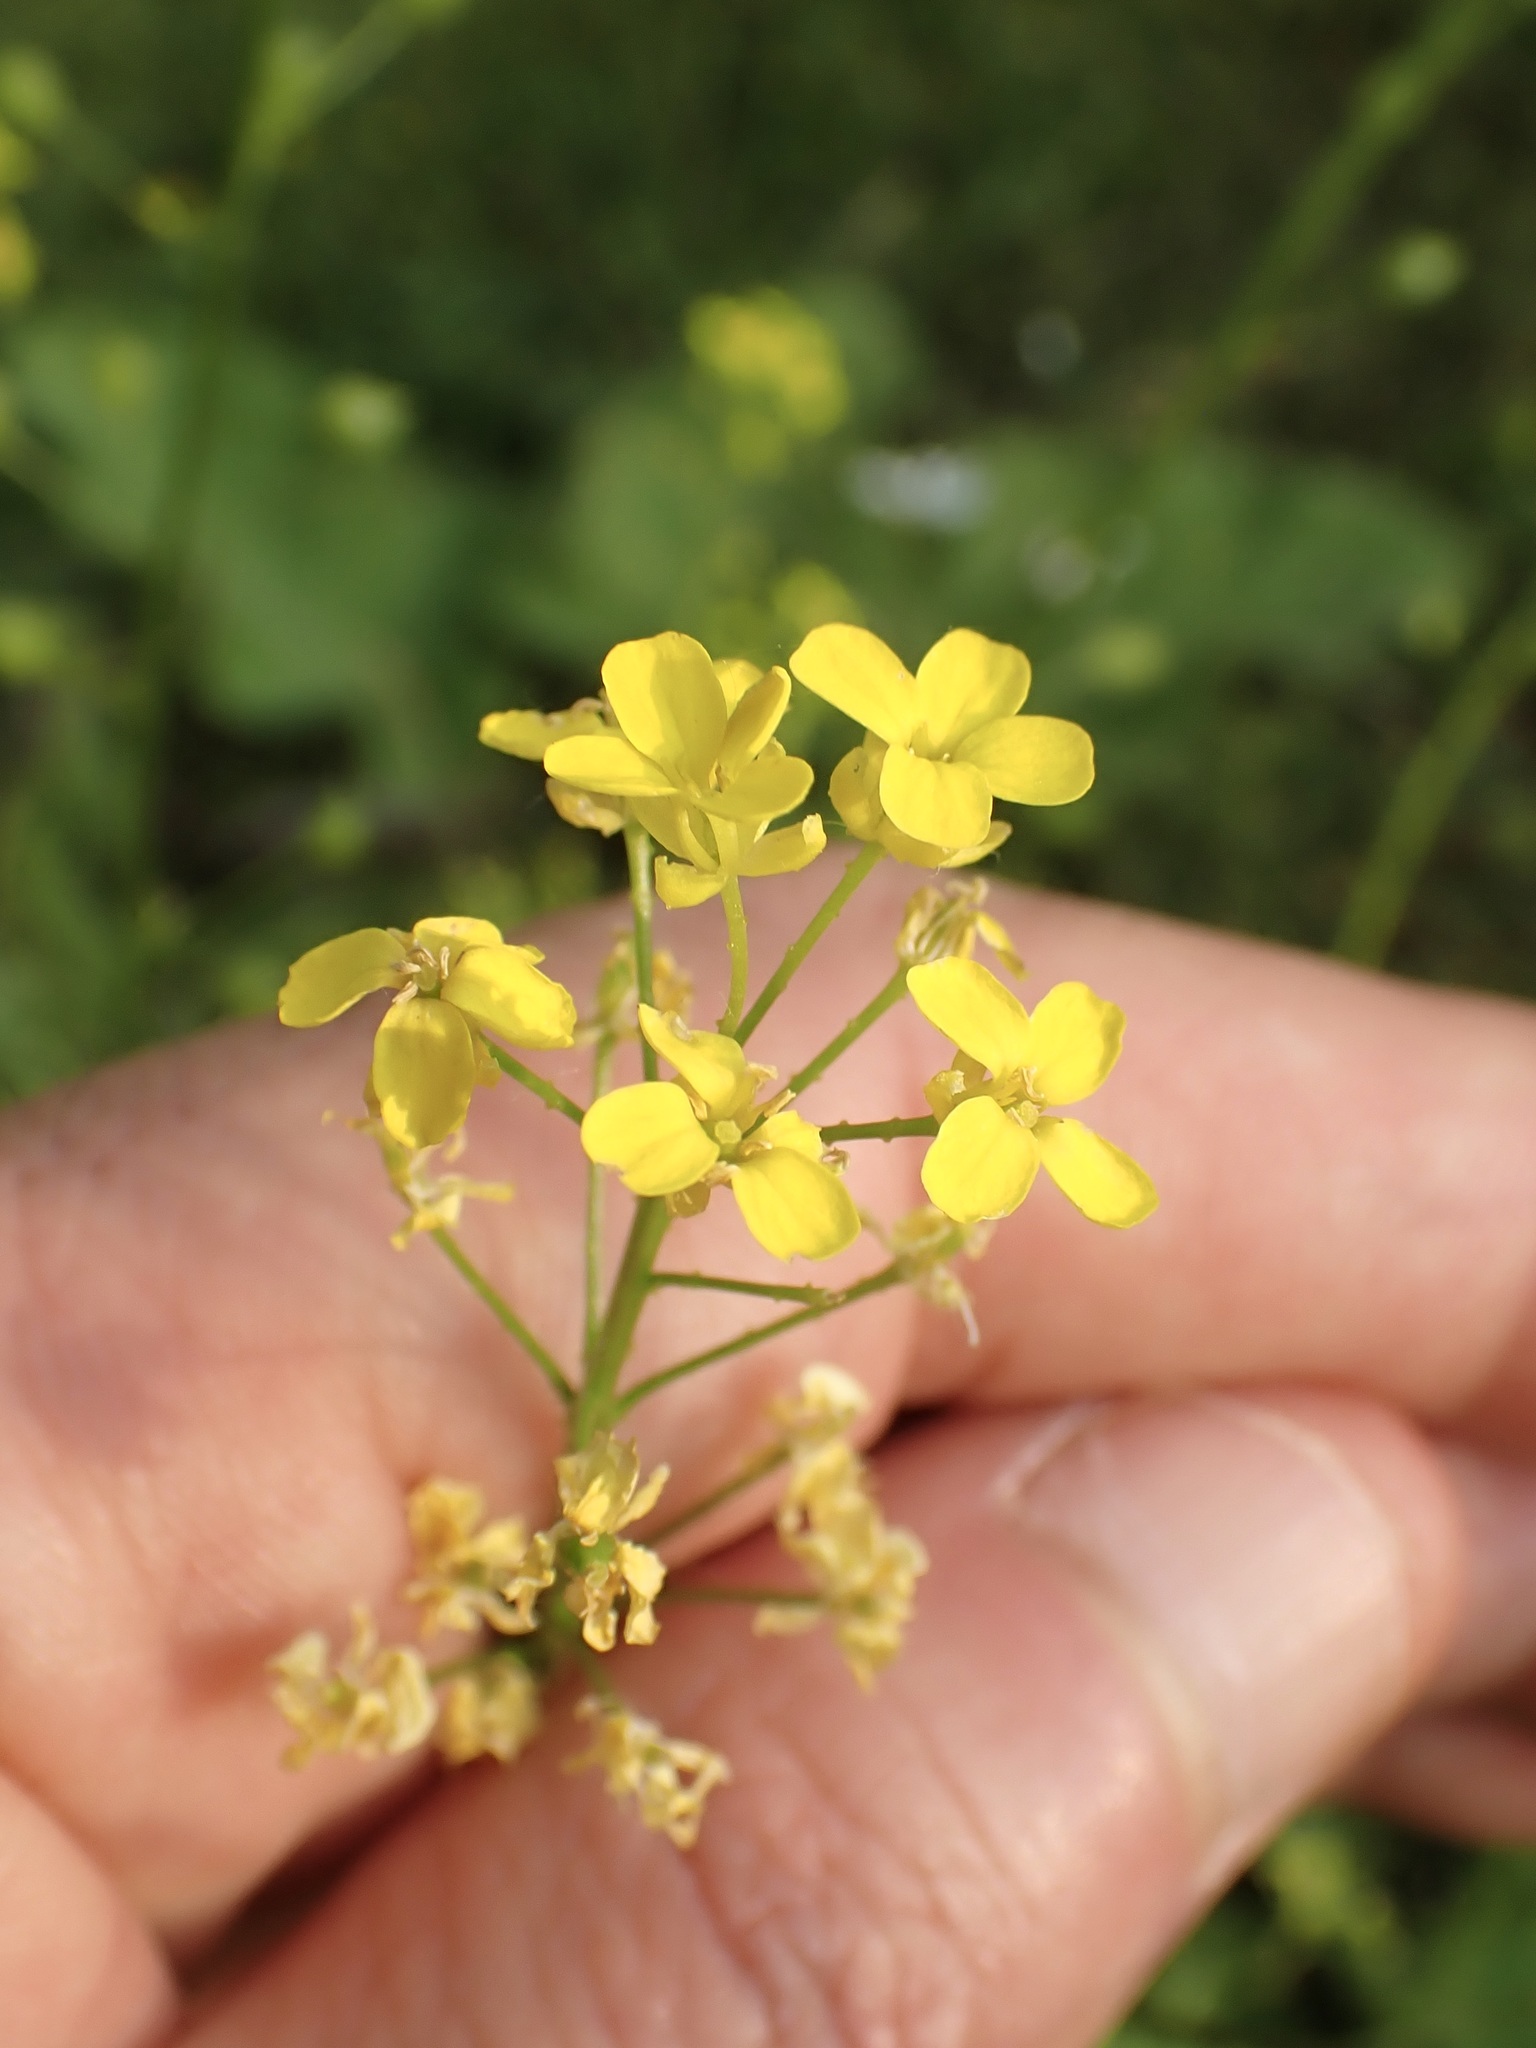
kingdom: Plantae
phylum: Tracheophyta
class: Magnoliopsida
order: Brassicales
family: Brassicaceae
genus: Bunias
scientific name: Bunias orientalis
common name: Warty-cabbage
